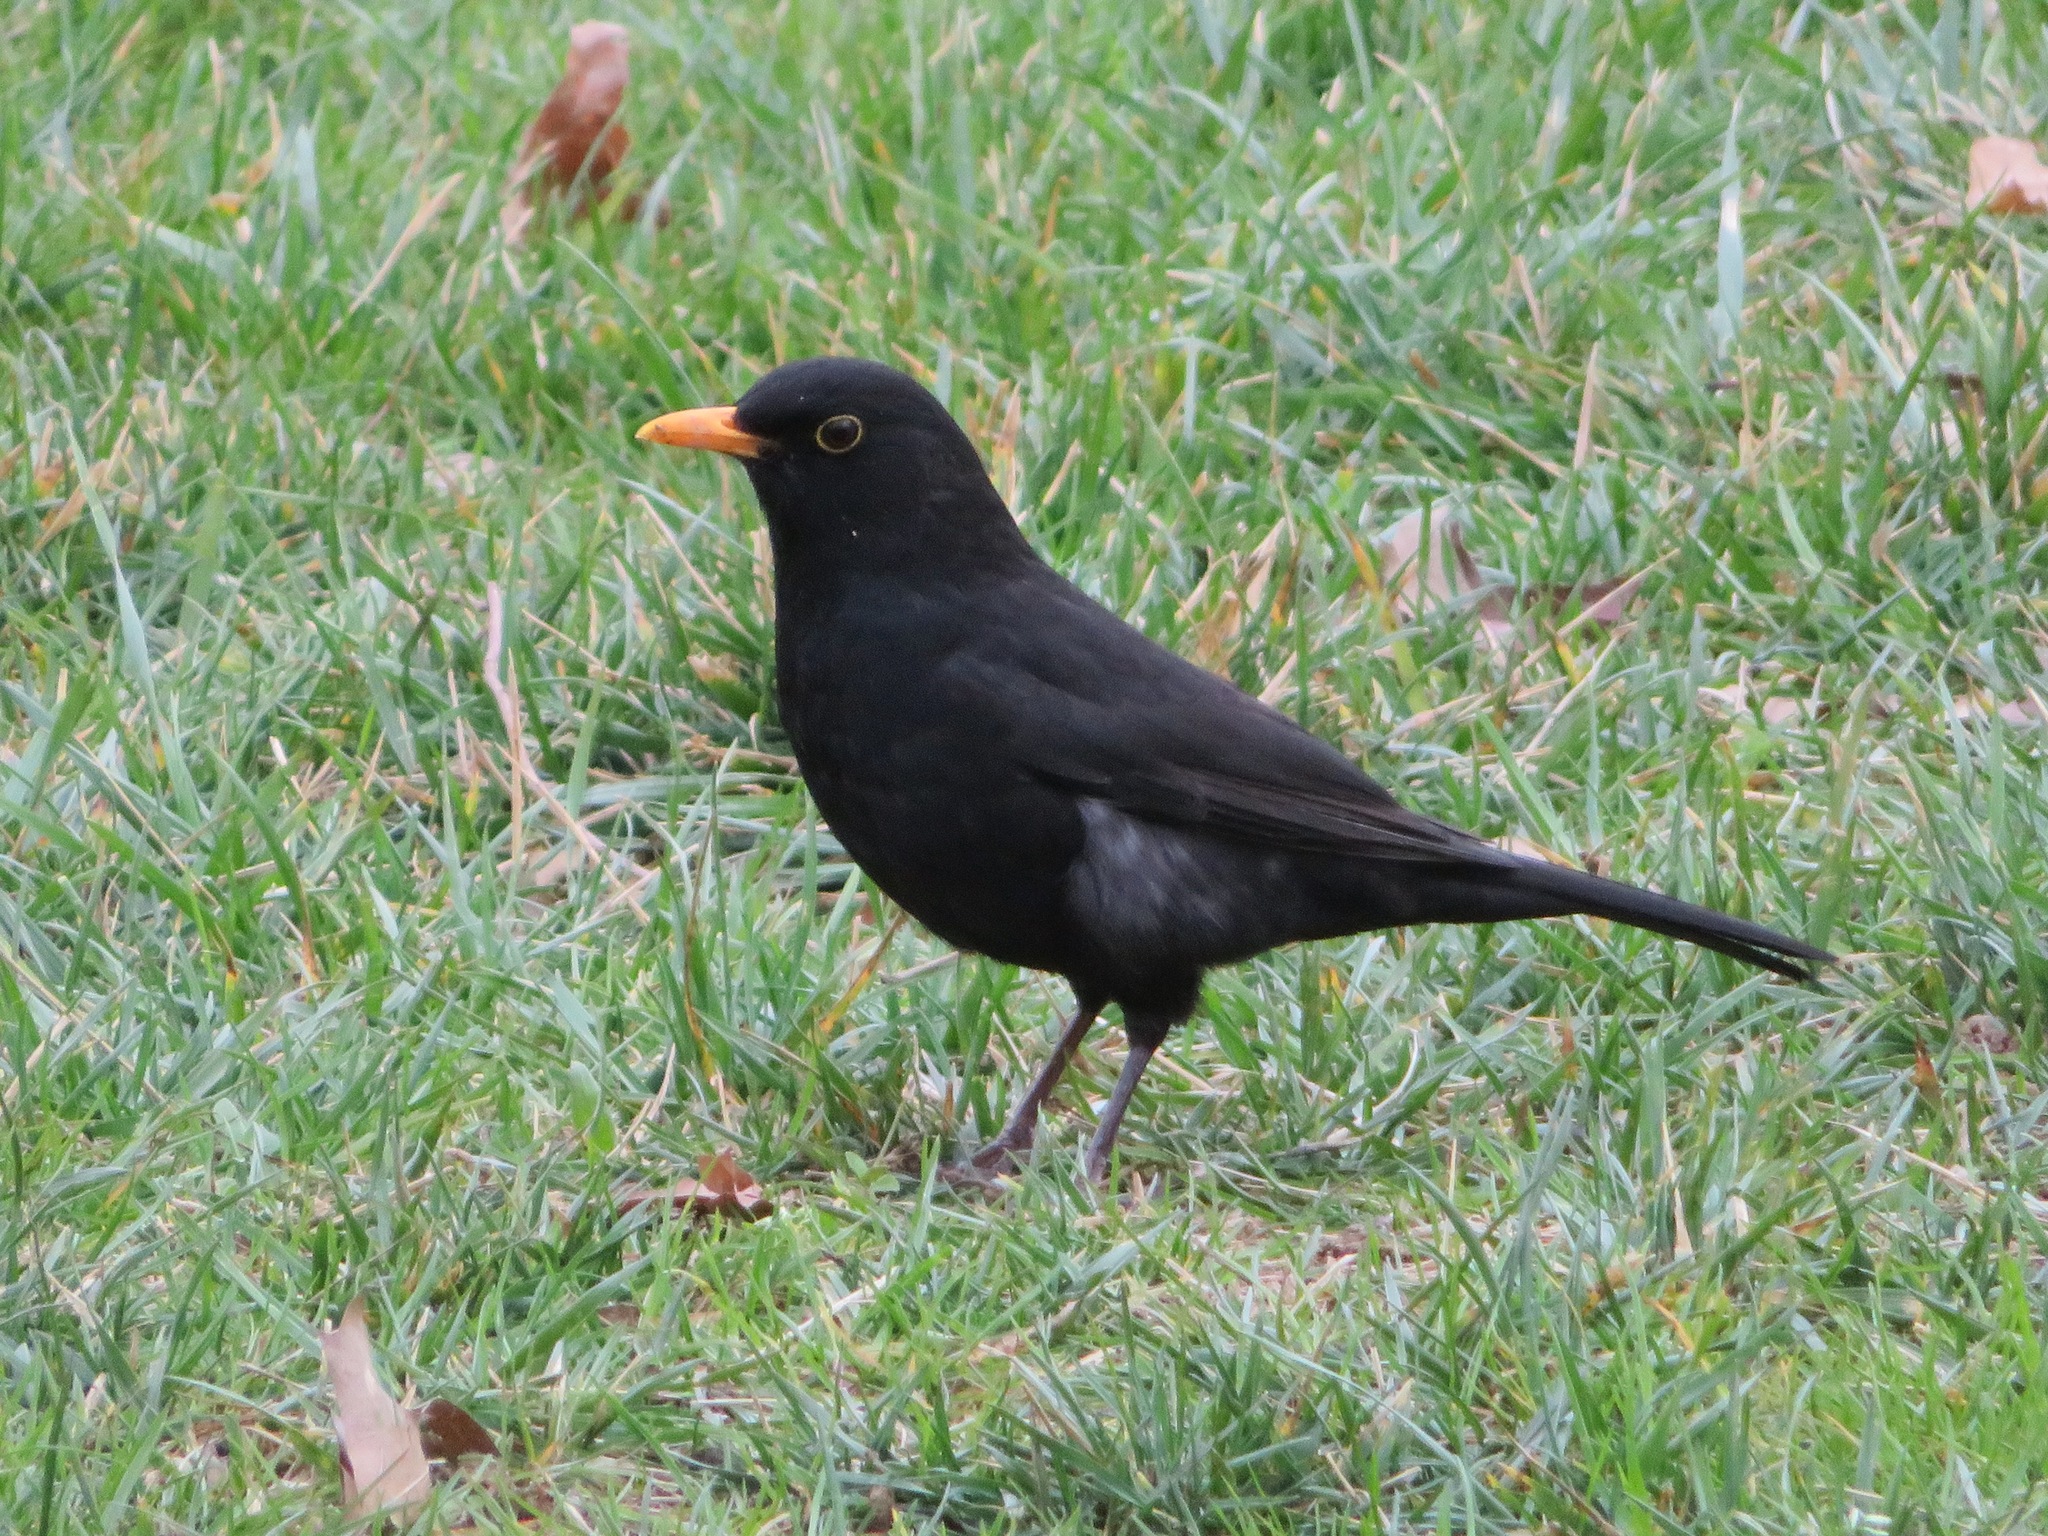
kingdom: Animalia
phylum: Chordata
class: Aves
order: Passeriformes
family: Turdidae
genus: Turdus
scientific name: Turdus merula
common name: Common blackbird
